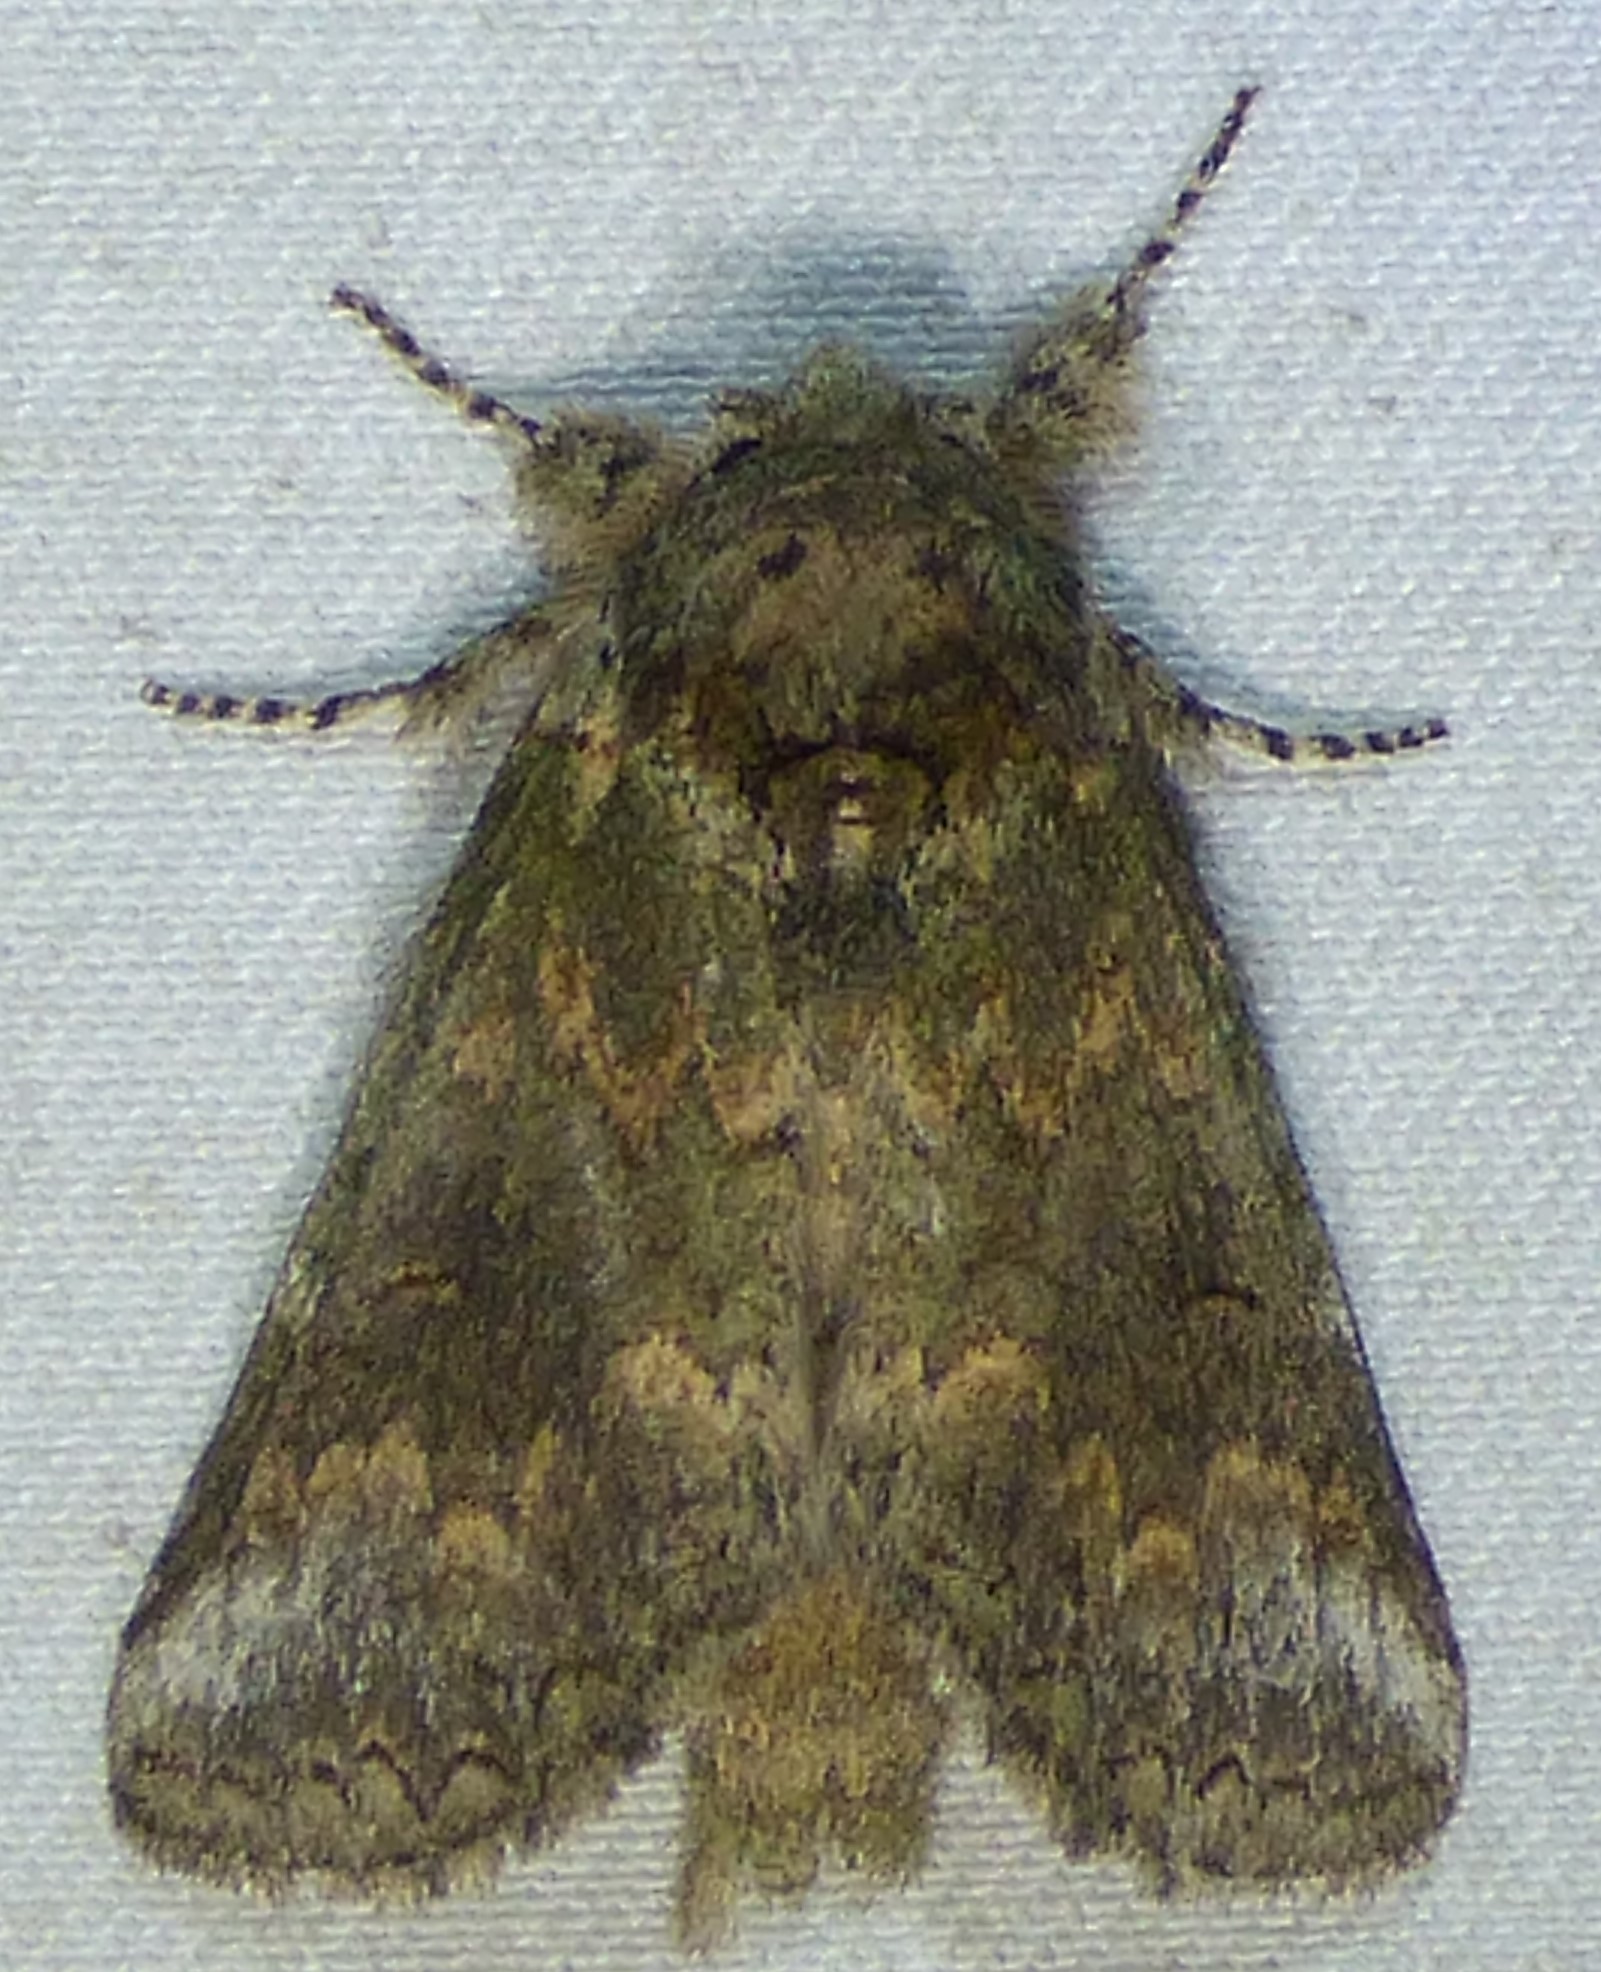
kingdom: Animalia
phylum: Arthropoda
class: Insecta
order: Lepidoptera
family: Notodontidae
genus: Rifargia
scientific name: Rifargia
